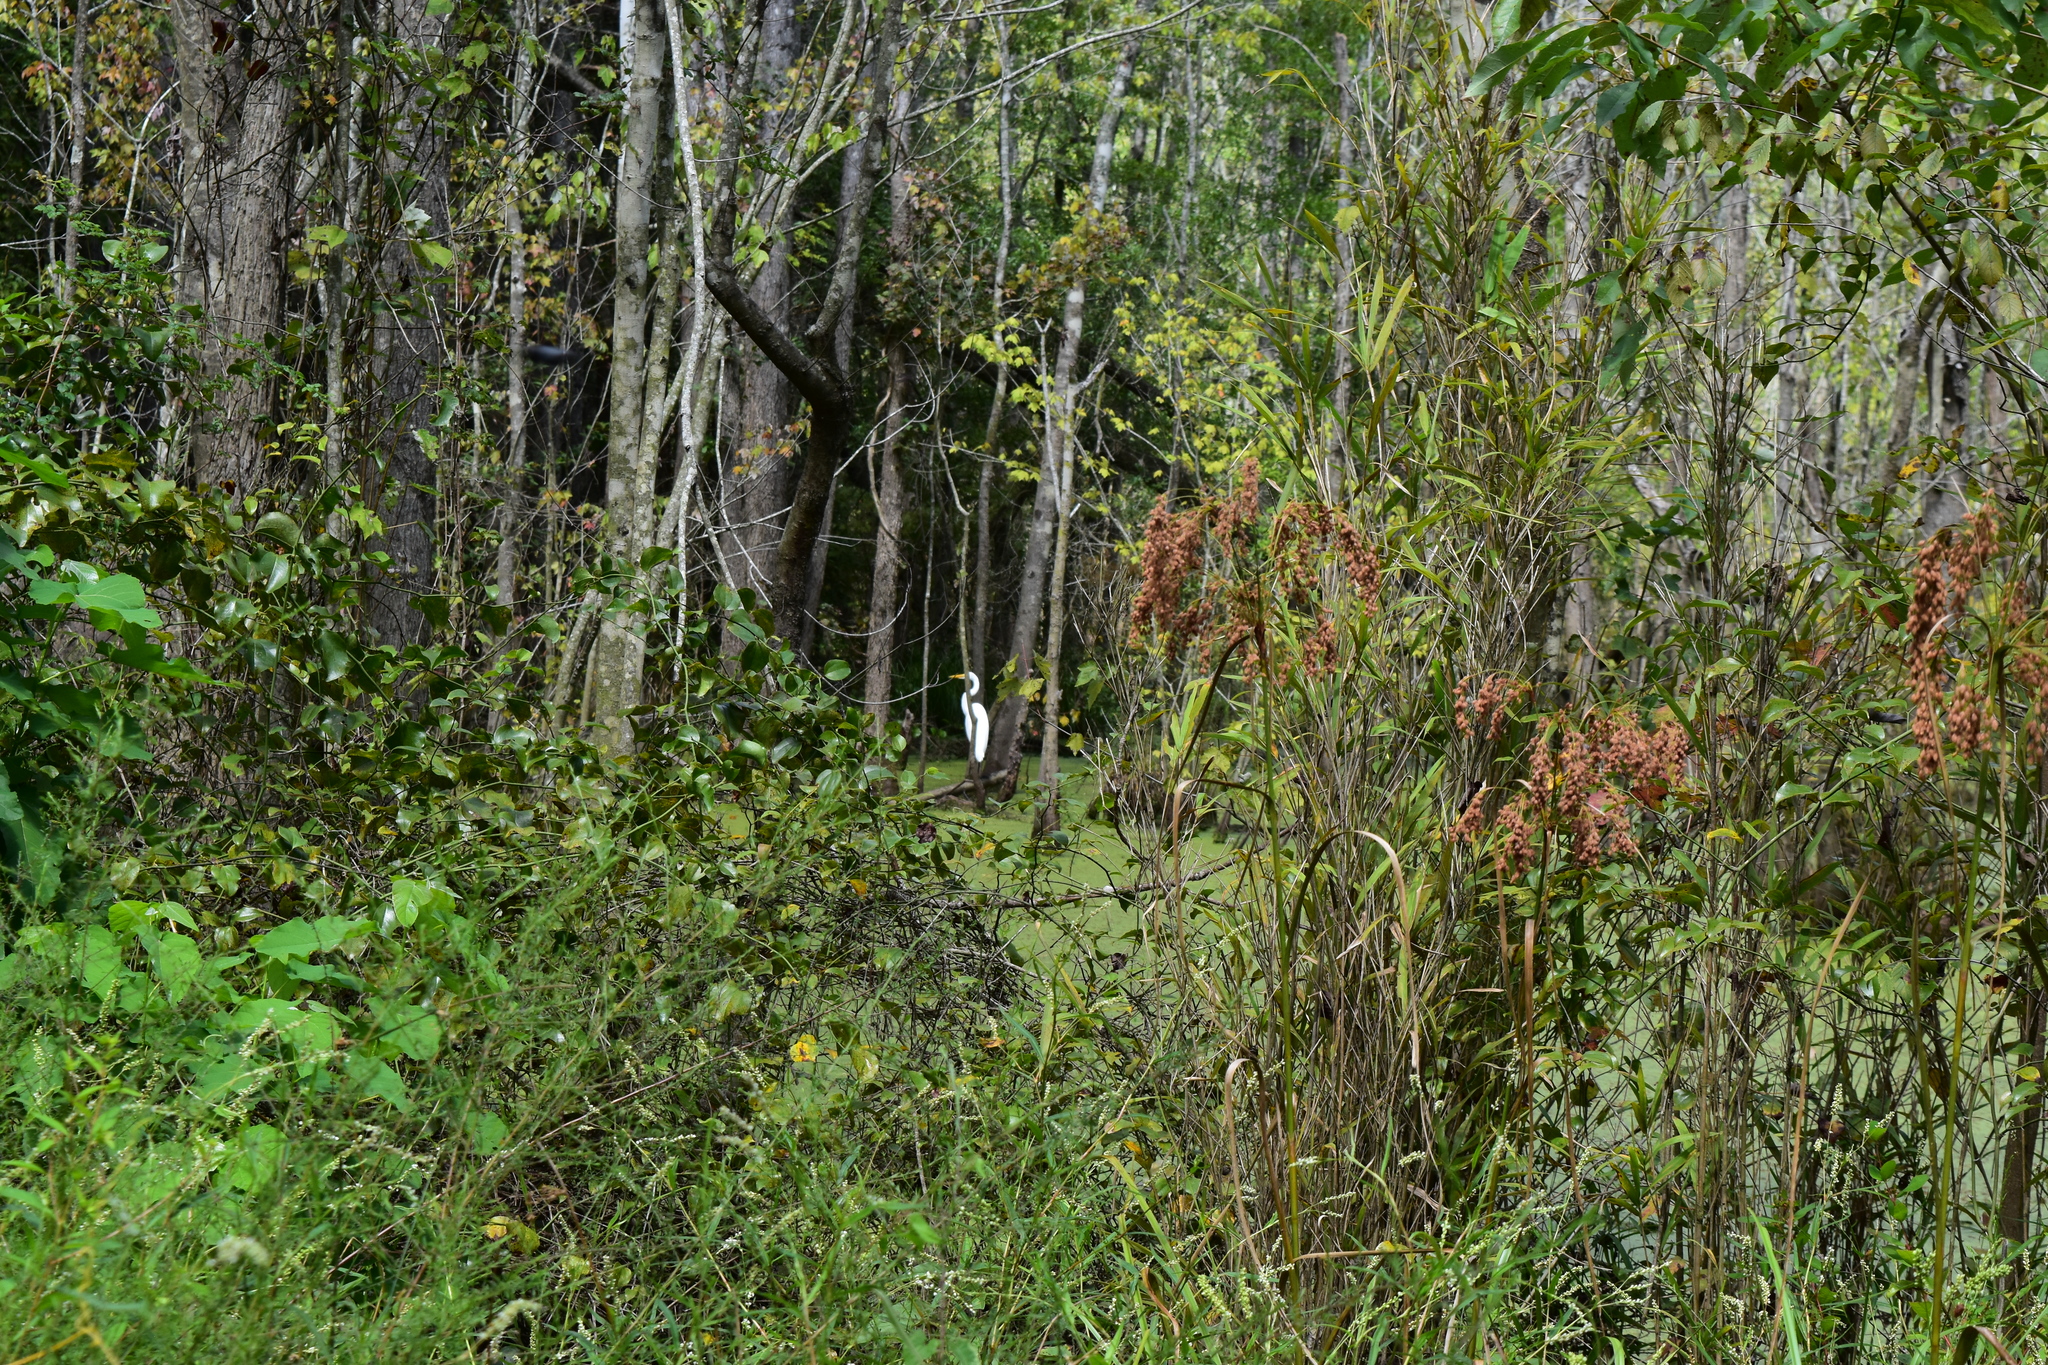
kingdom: Animalia
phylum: Chordata
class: Aves
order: Pelecaniformes
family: Ardeidae
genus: Ardea
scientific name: Ardea alba
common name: Great egret
